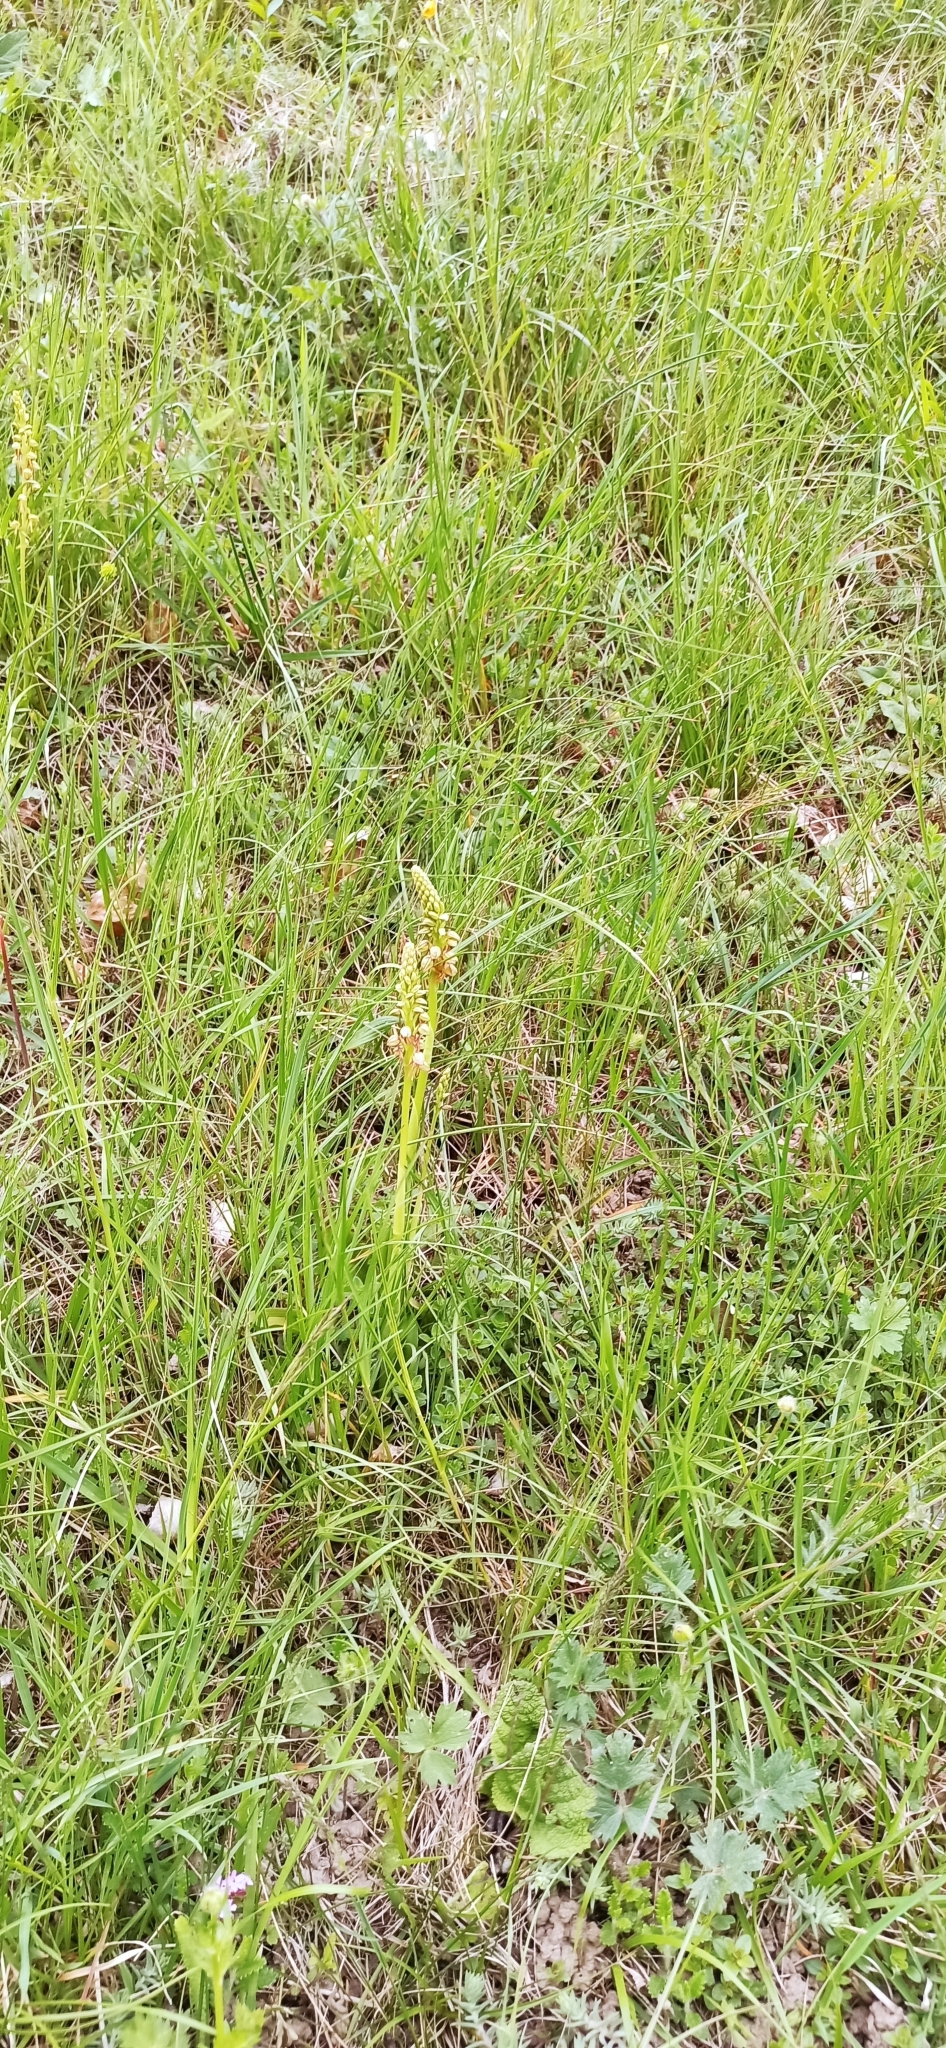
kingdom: Plantae
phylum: Tracheophyta
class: Liliopsida
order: Asparagales
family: Orchidaceae
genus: Orchis
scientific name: Orchis anthropophora
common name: Man orchid
